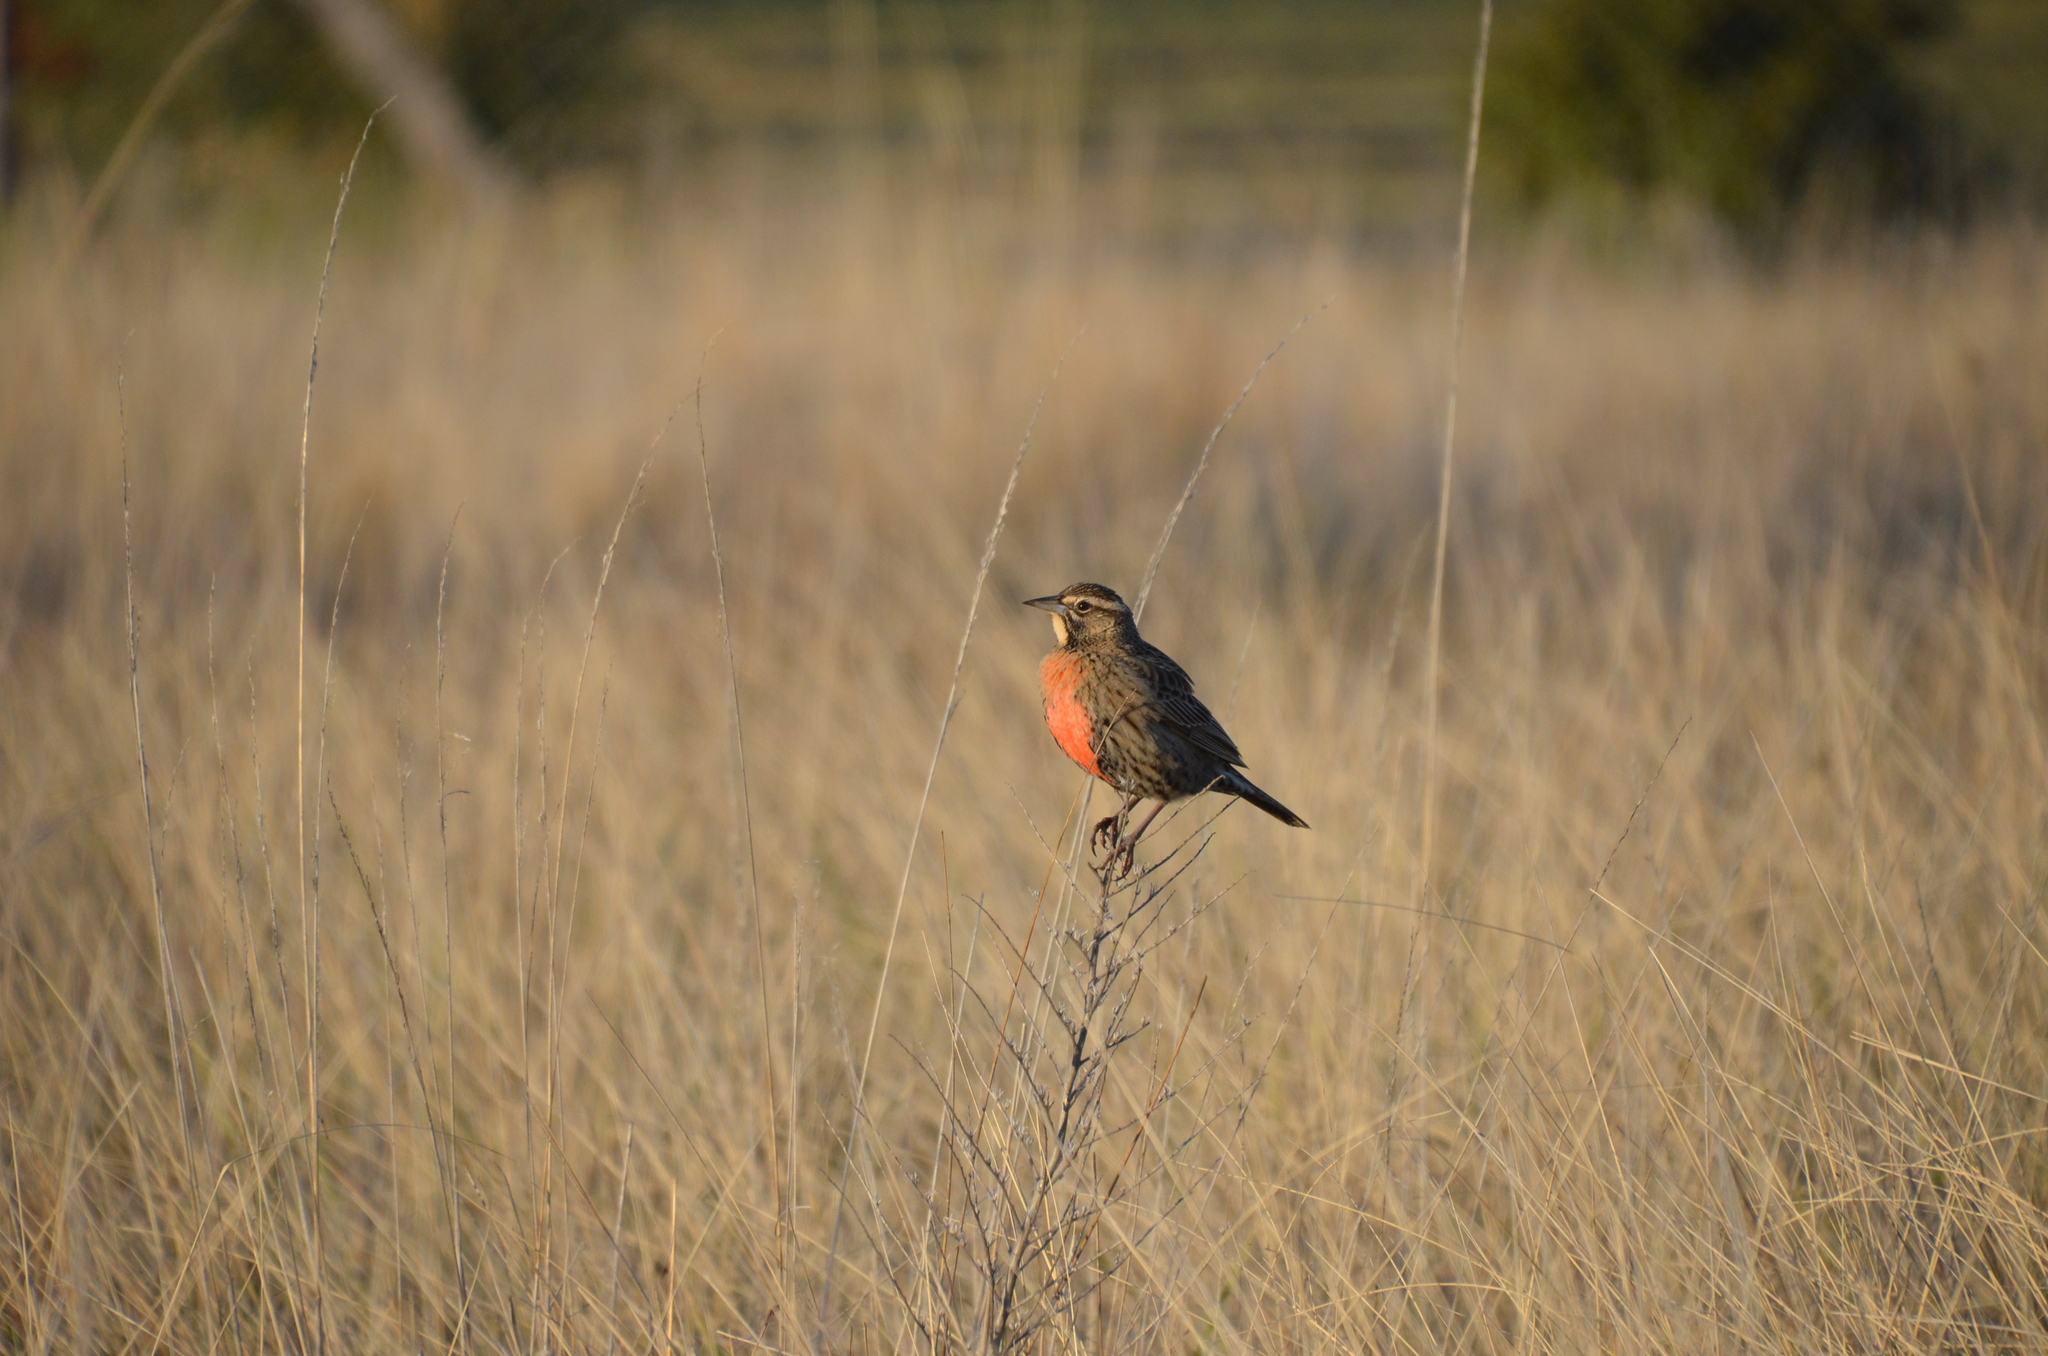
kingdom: Animalia
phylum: Chordata
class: Aves
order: Passeriformes
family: Icteridae
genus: Sturnella
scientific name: Sturnella loyca
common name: Long-tailed meadowlark
